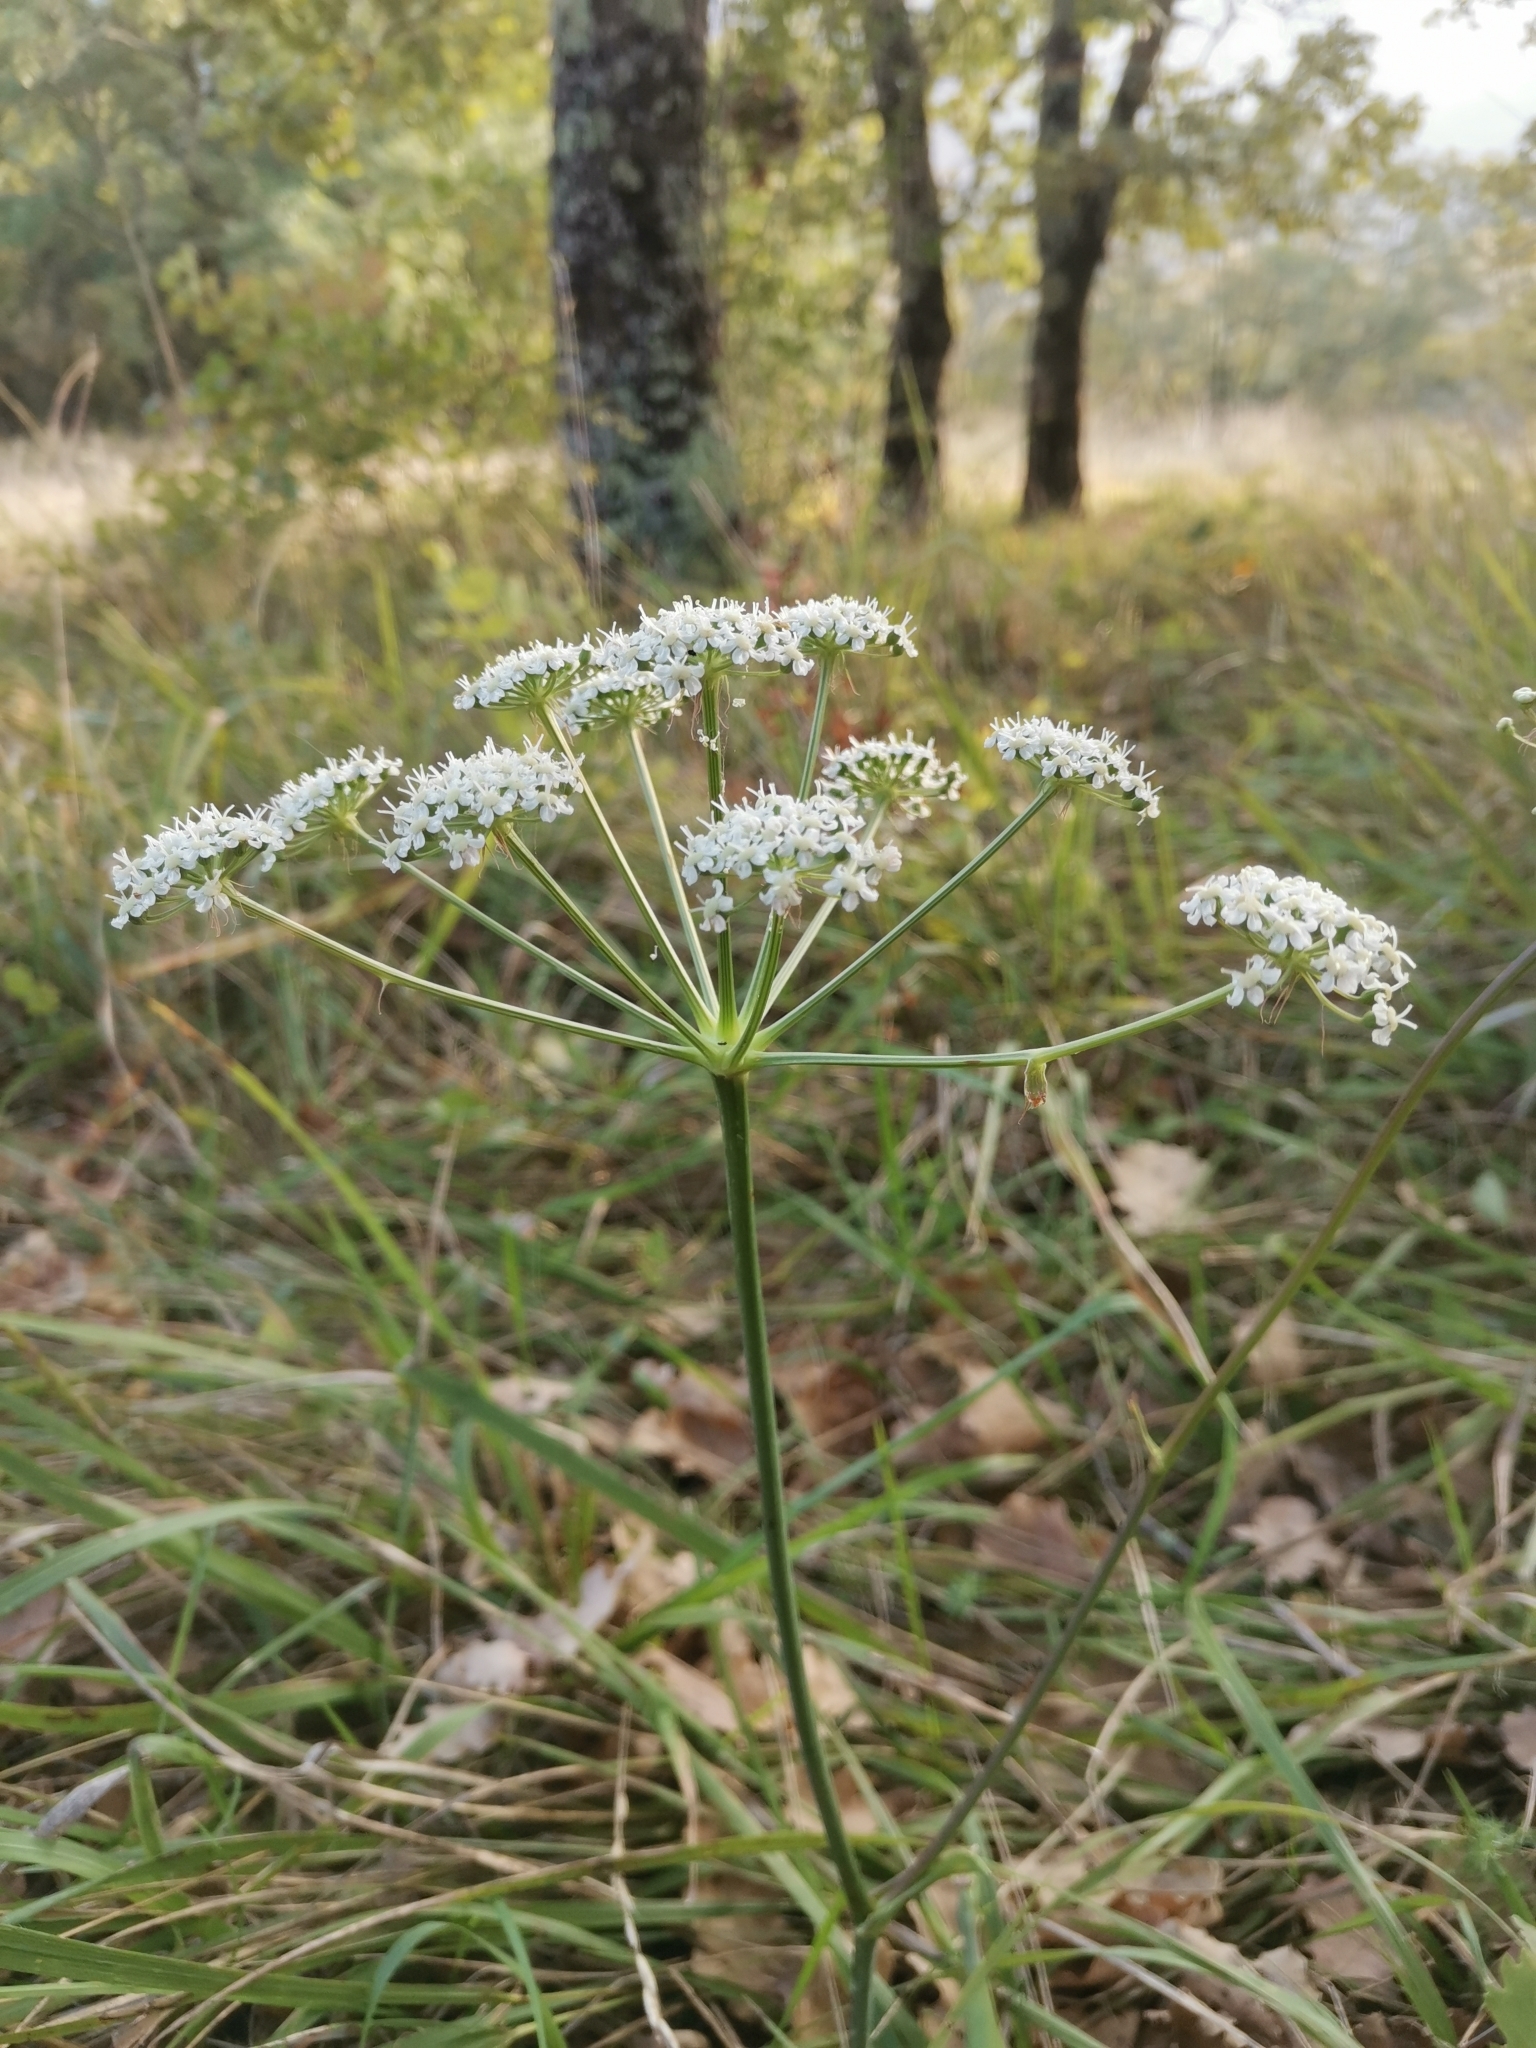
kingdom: Plantae
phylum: Tracheophyta
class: Magnoliopsida
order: Apiales
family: Apiaceae
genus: Cervaria
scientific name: Cervaria rivini
